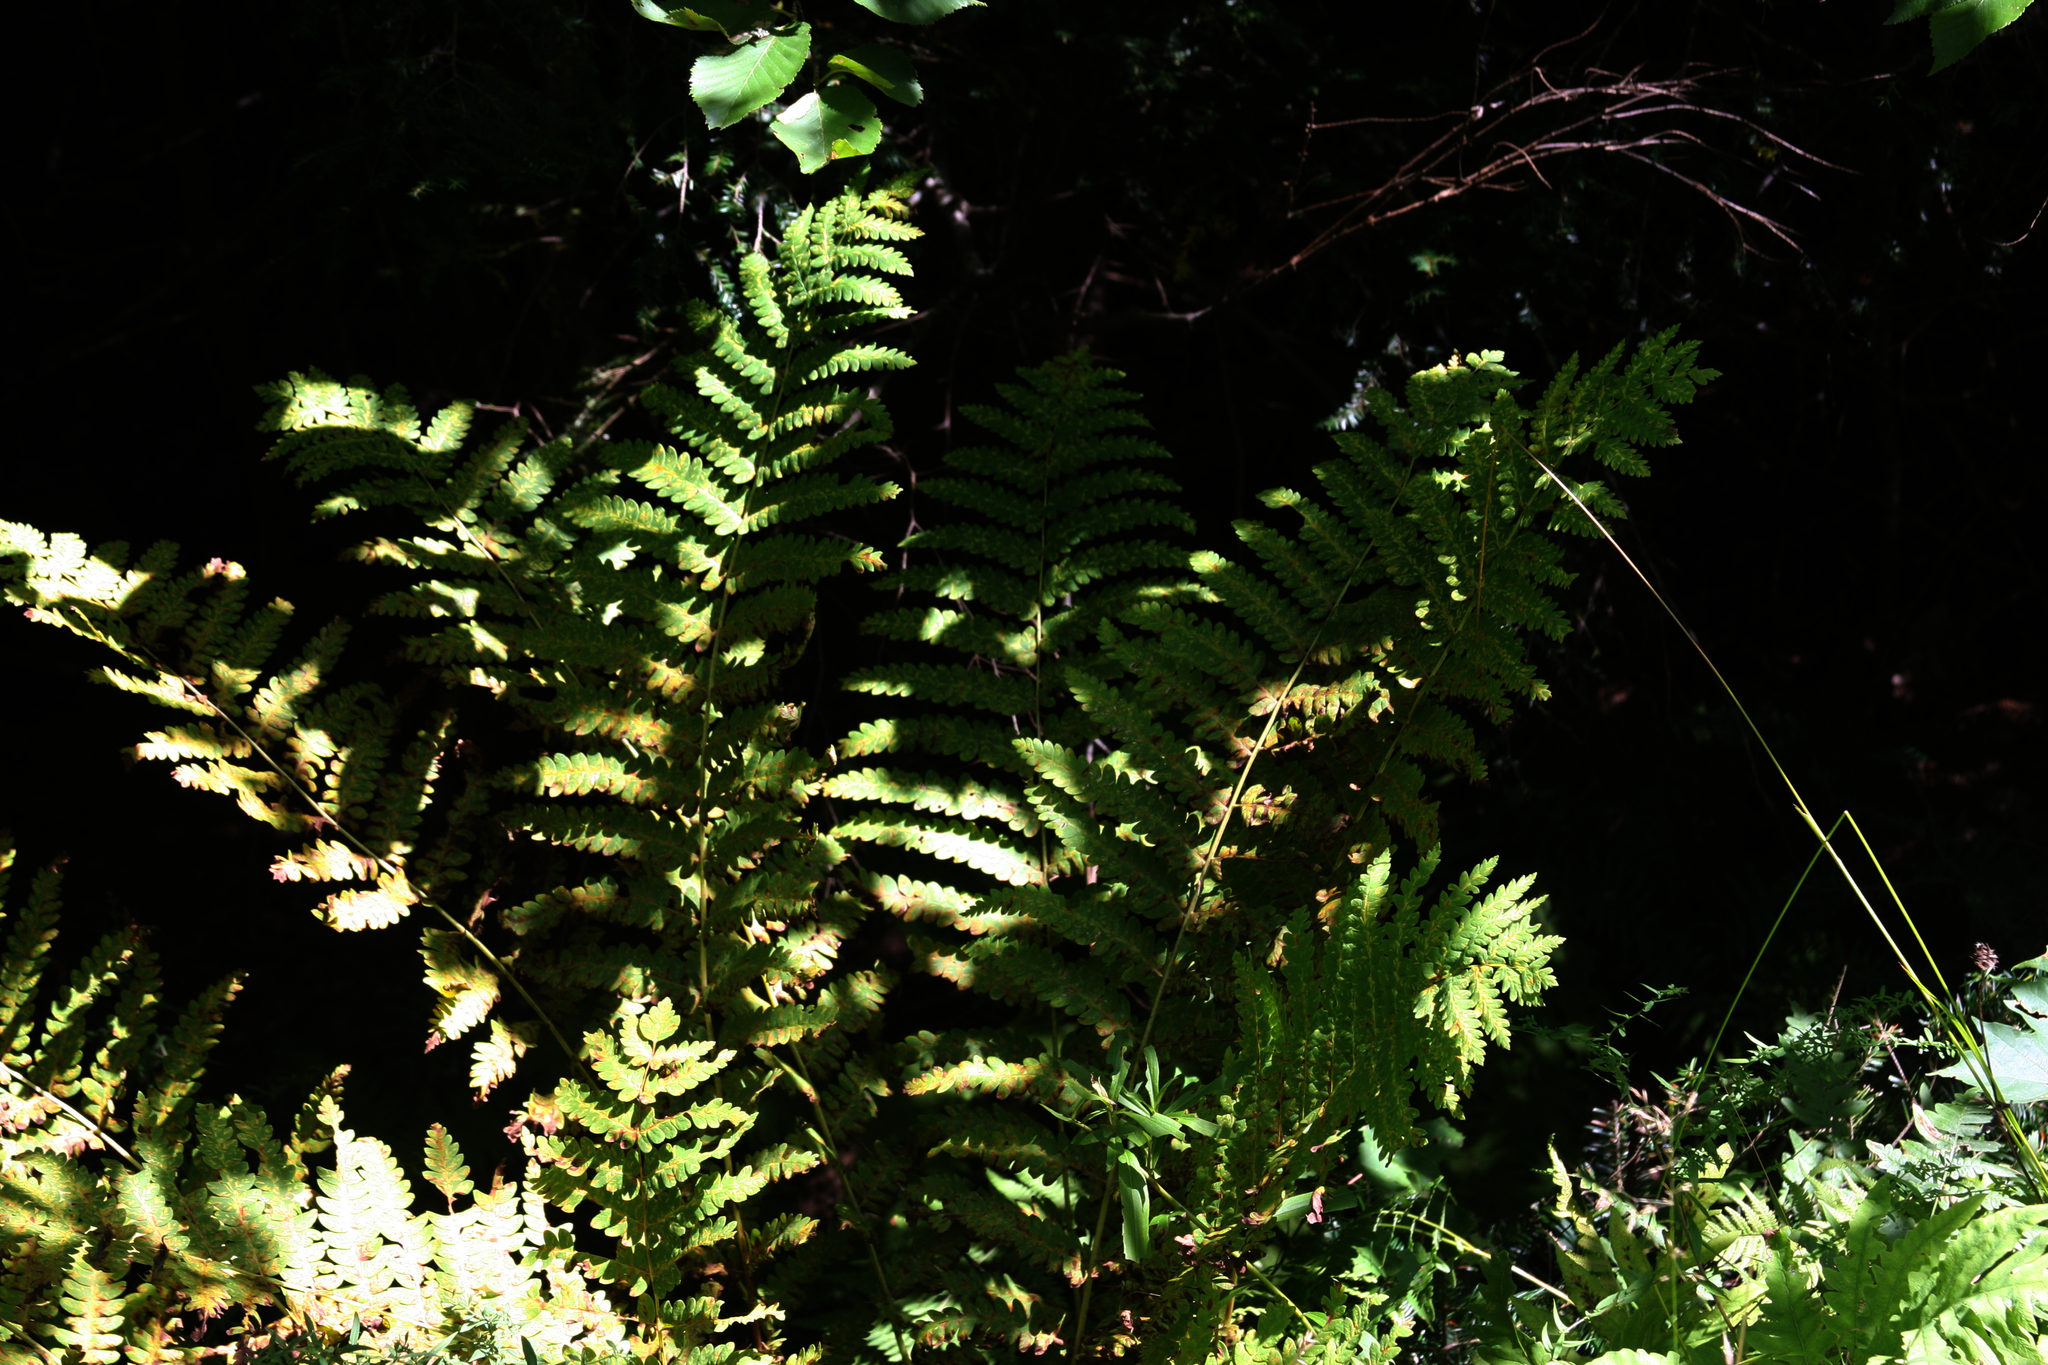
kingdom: Plantae
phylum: Tracheophyta
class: Polypodiopsida
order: Osmundales
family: Osmundaceae
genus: Claytosmunda
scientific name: Claytosmunda claytoniana
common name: Clayton's fern
